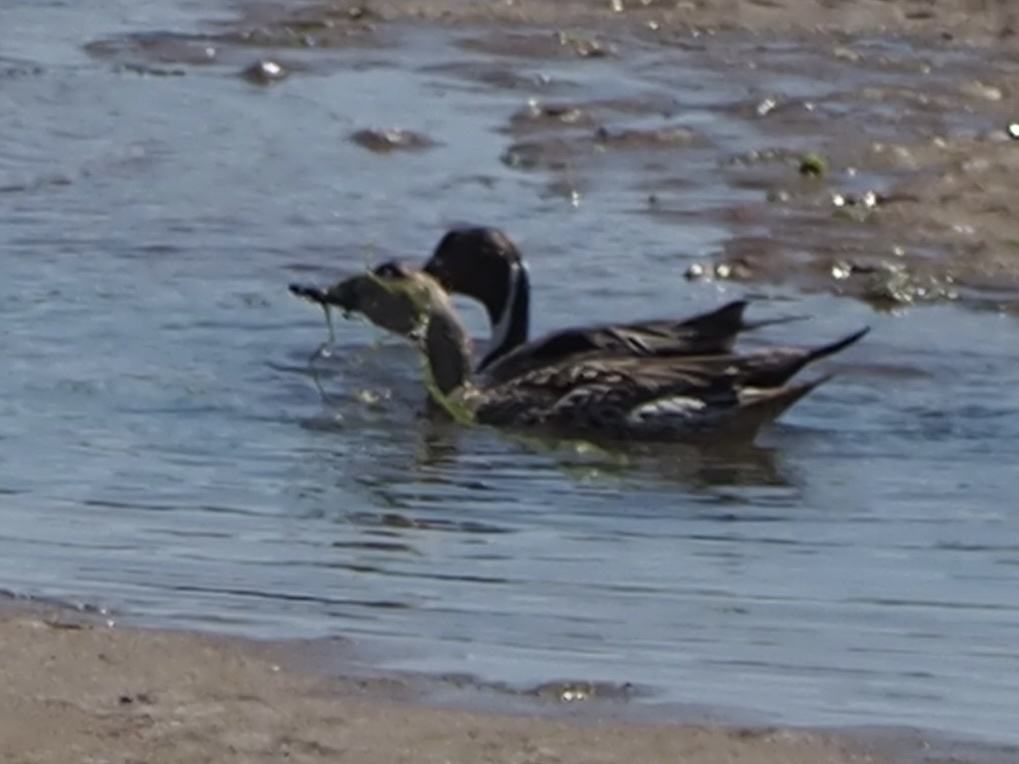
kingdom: Animalia
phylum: Chordata
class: Aves
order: Anseriformes
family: Anatidae
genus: Anas
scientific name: Anas acuta
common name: Northern pintail
